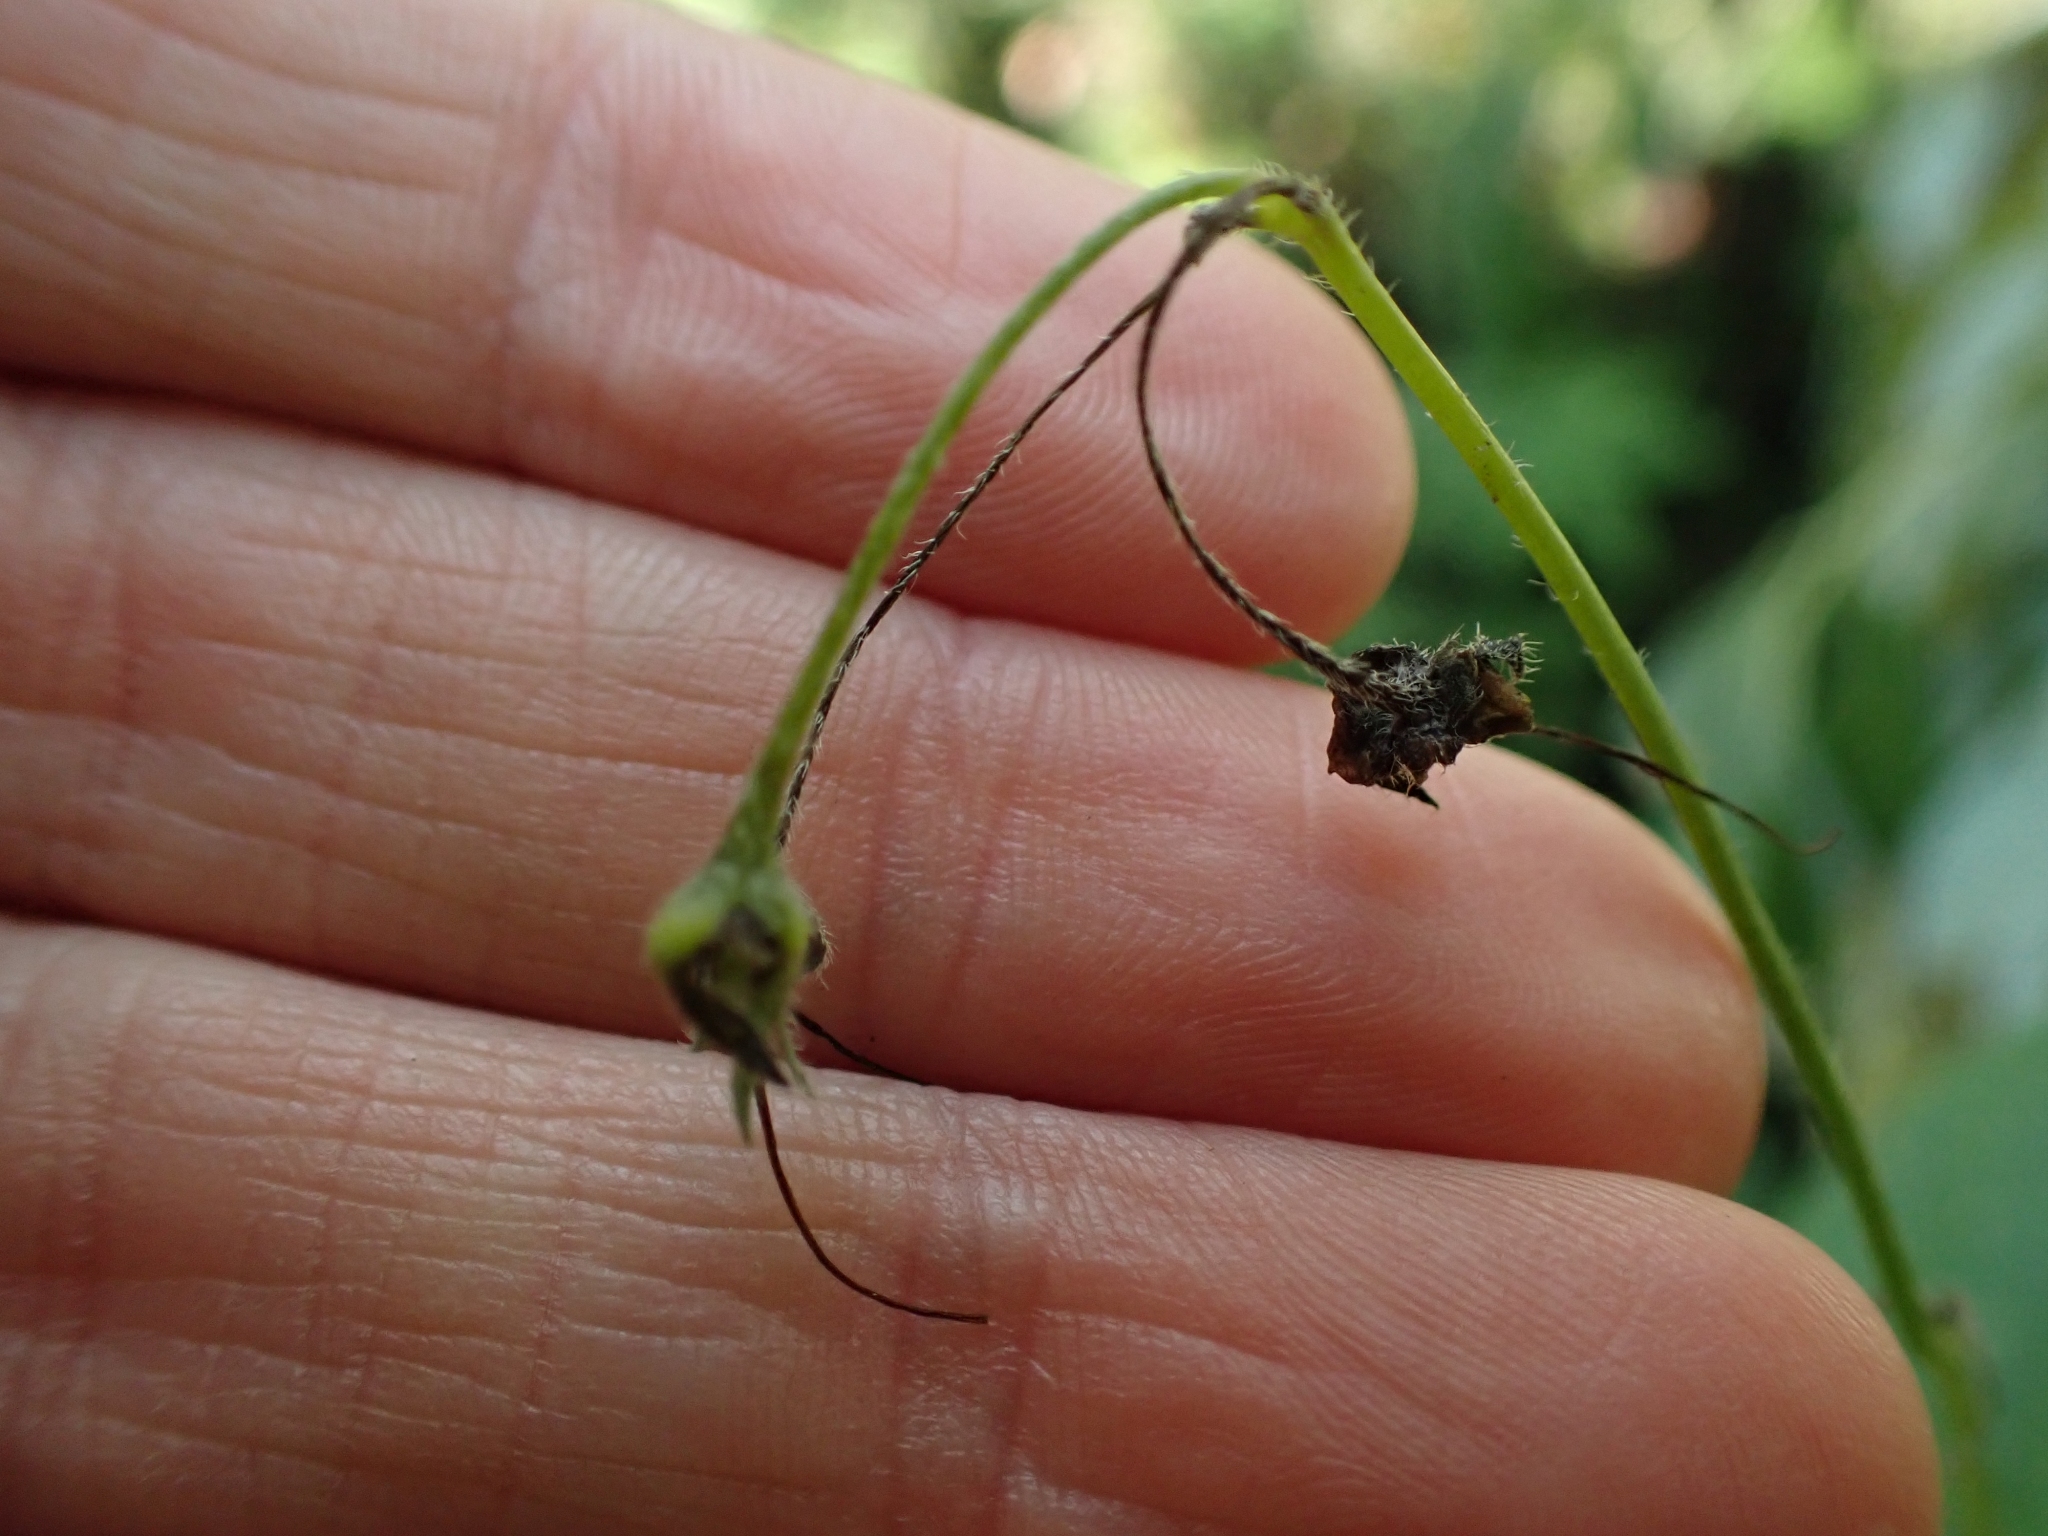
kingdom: Plantae
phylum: Tracheophyta
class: Magnoliopsida
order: Boraginales
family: Boraginaceae
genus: Mertensia
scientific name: Mertensia paniculata
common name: Panicled bluebells
